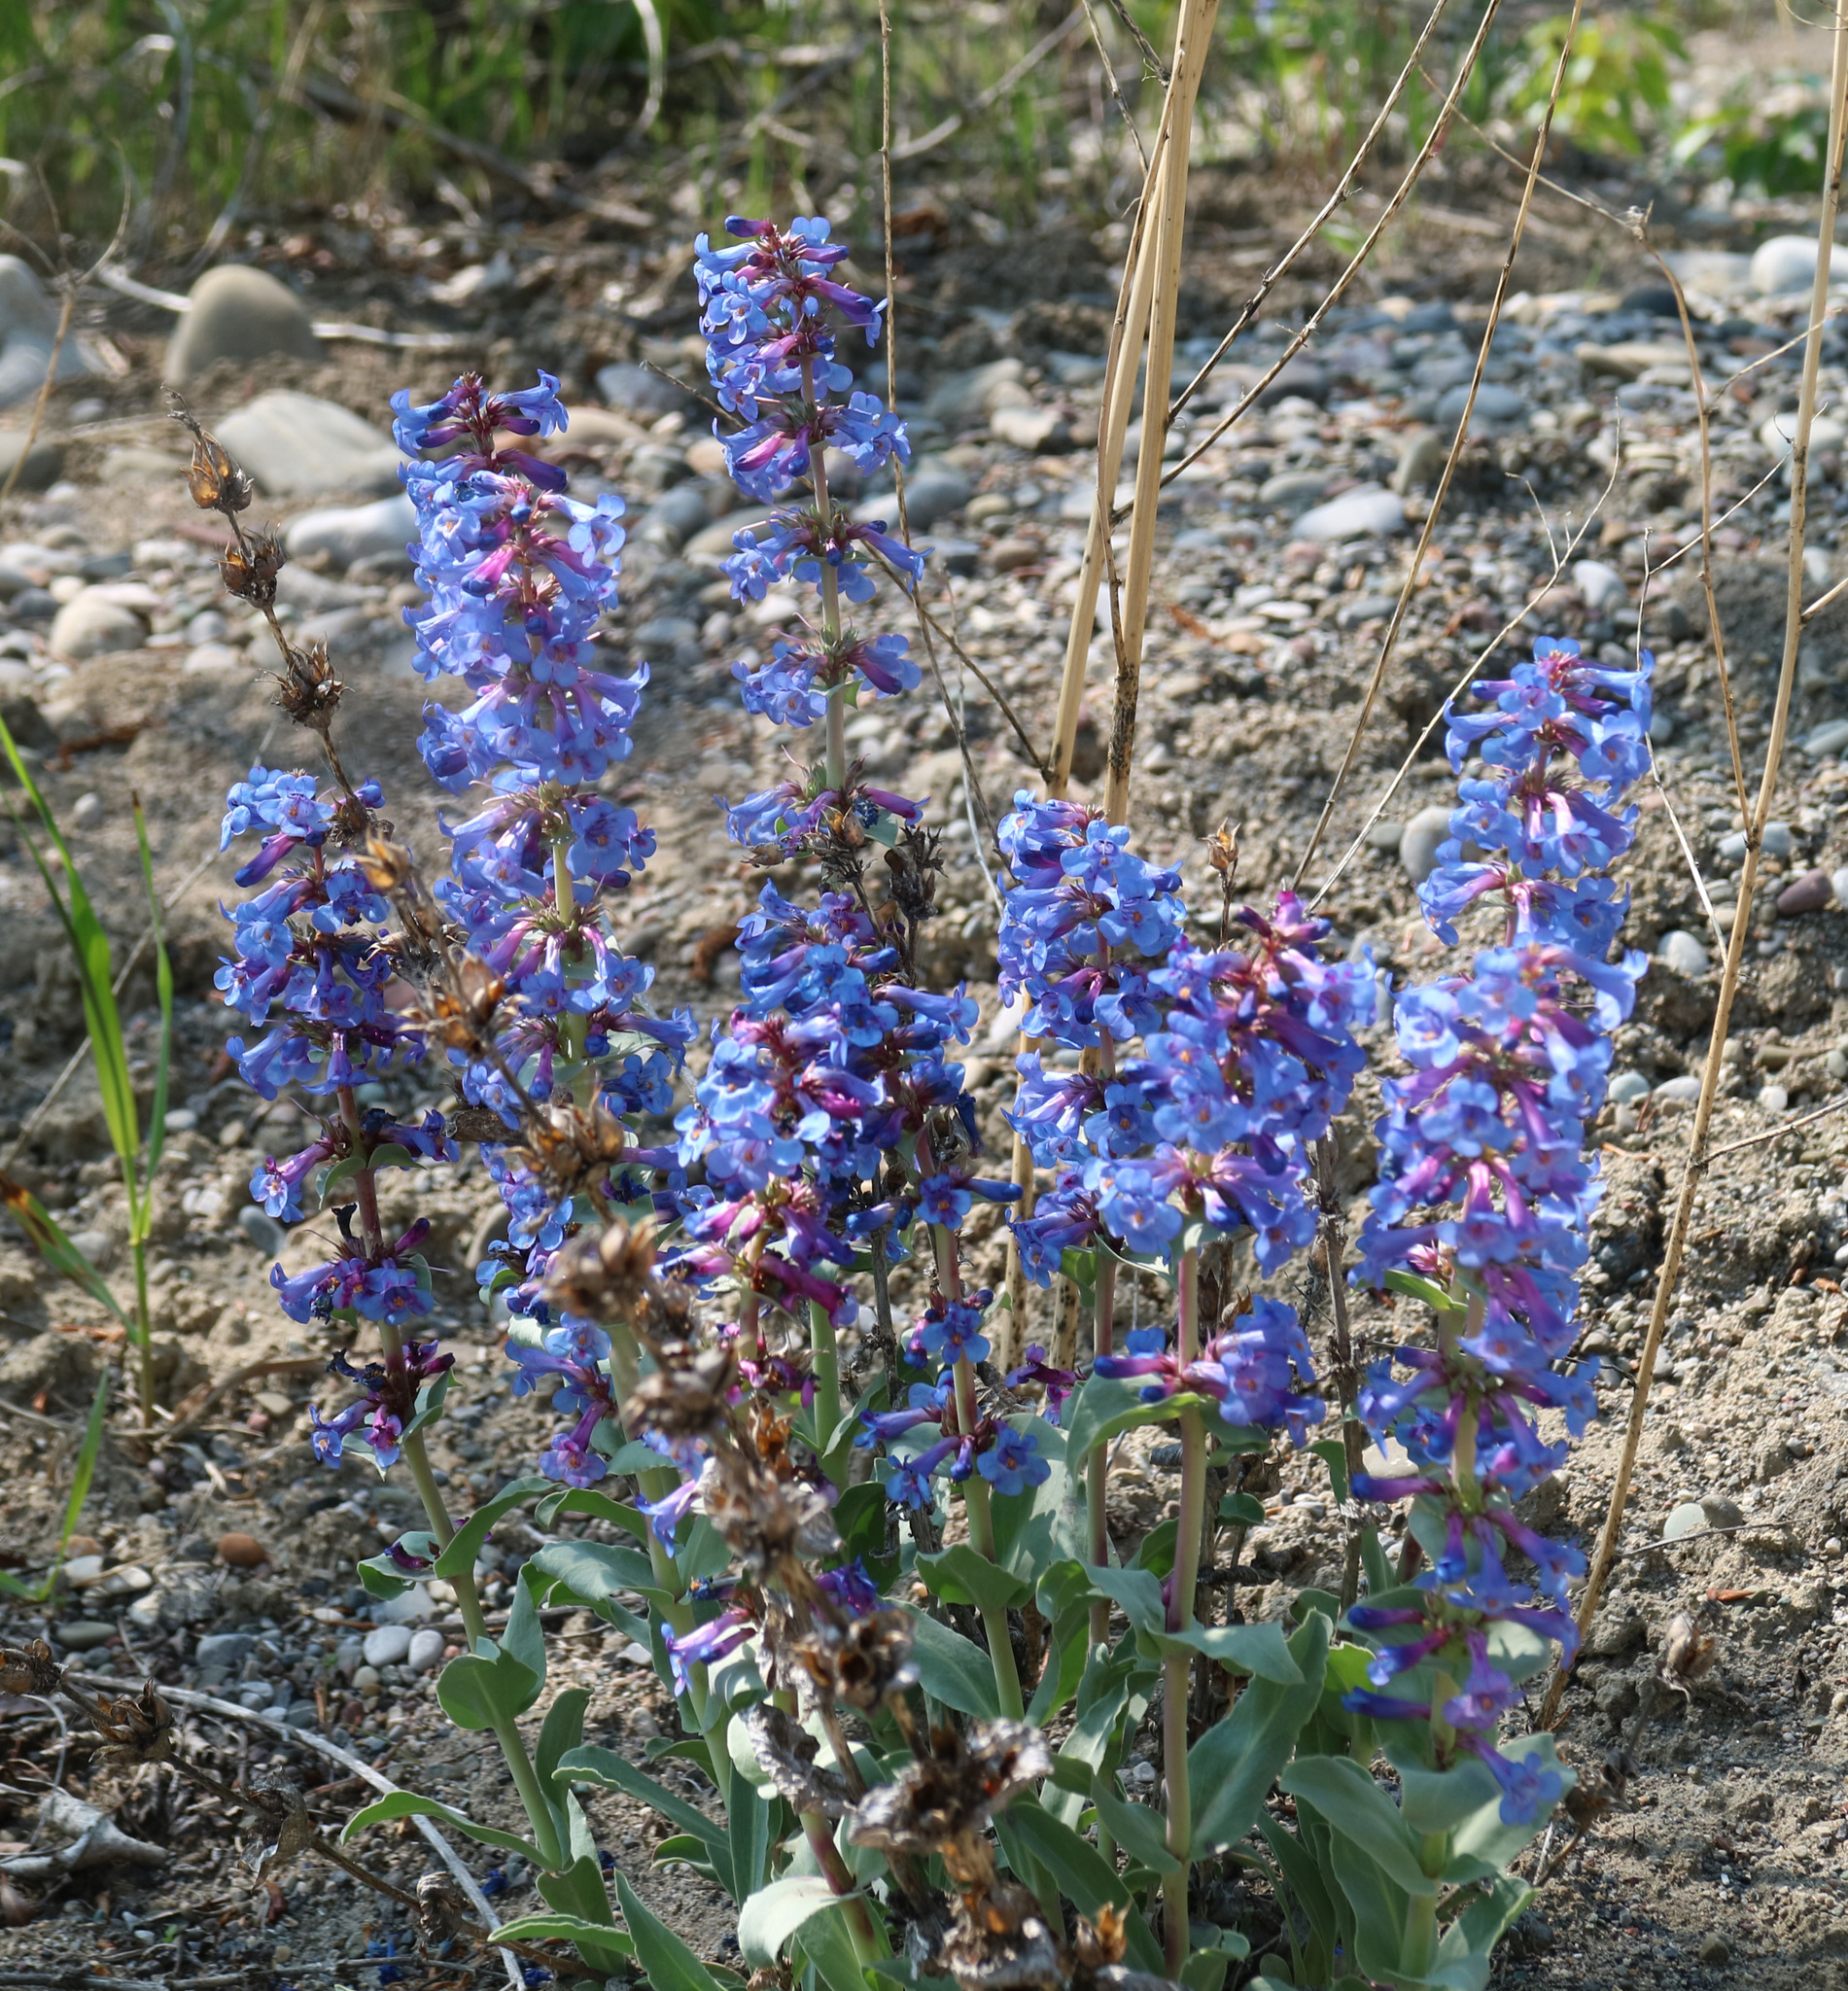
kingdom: Plantae
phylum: Tracheophyta
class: Magnoliopsida
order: Lamiales
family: Plantaginaceae
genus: Penstemon
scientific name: Penstemon nitidus
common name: Shining penstemon
